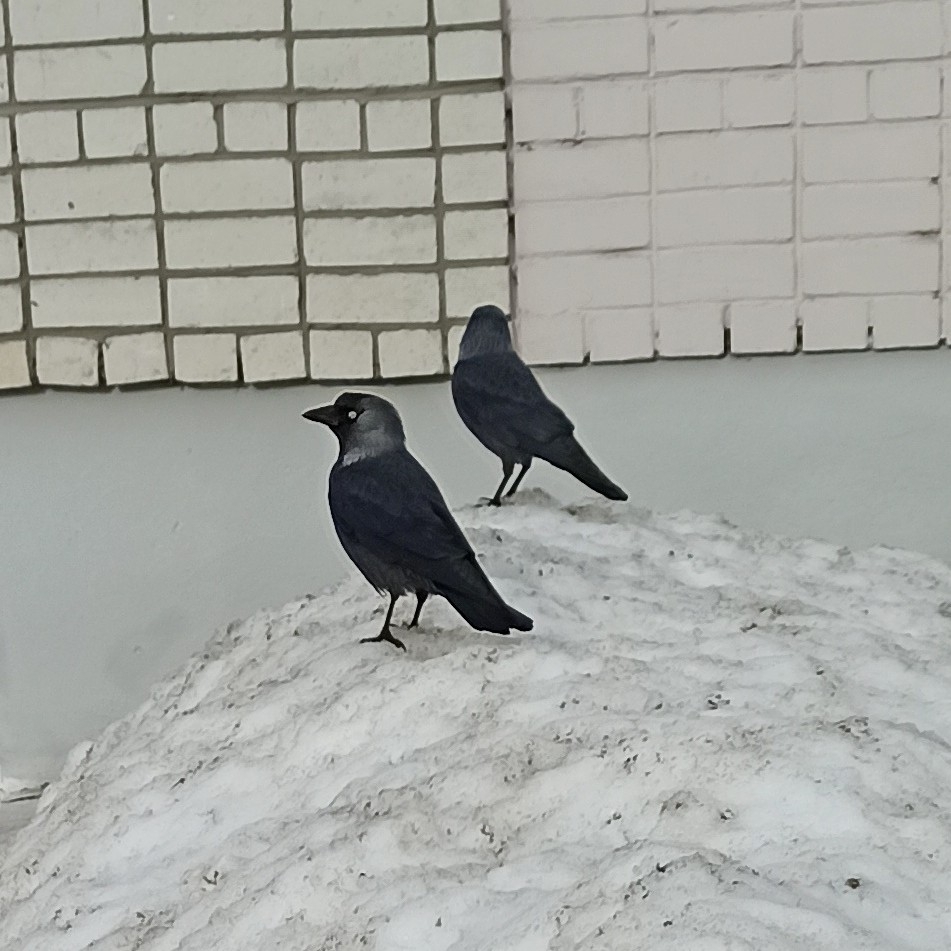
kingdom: Animalia
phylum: Chordata
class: Aves
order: Passeriformes
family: Corvidae
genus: Coloeus
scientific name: Coloeus monedula
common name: Western jackdaw
